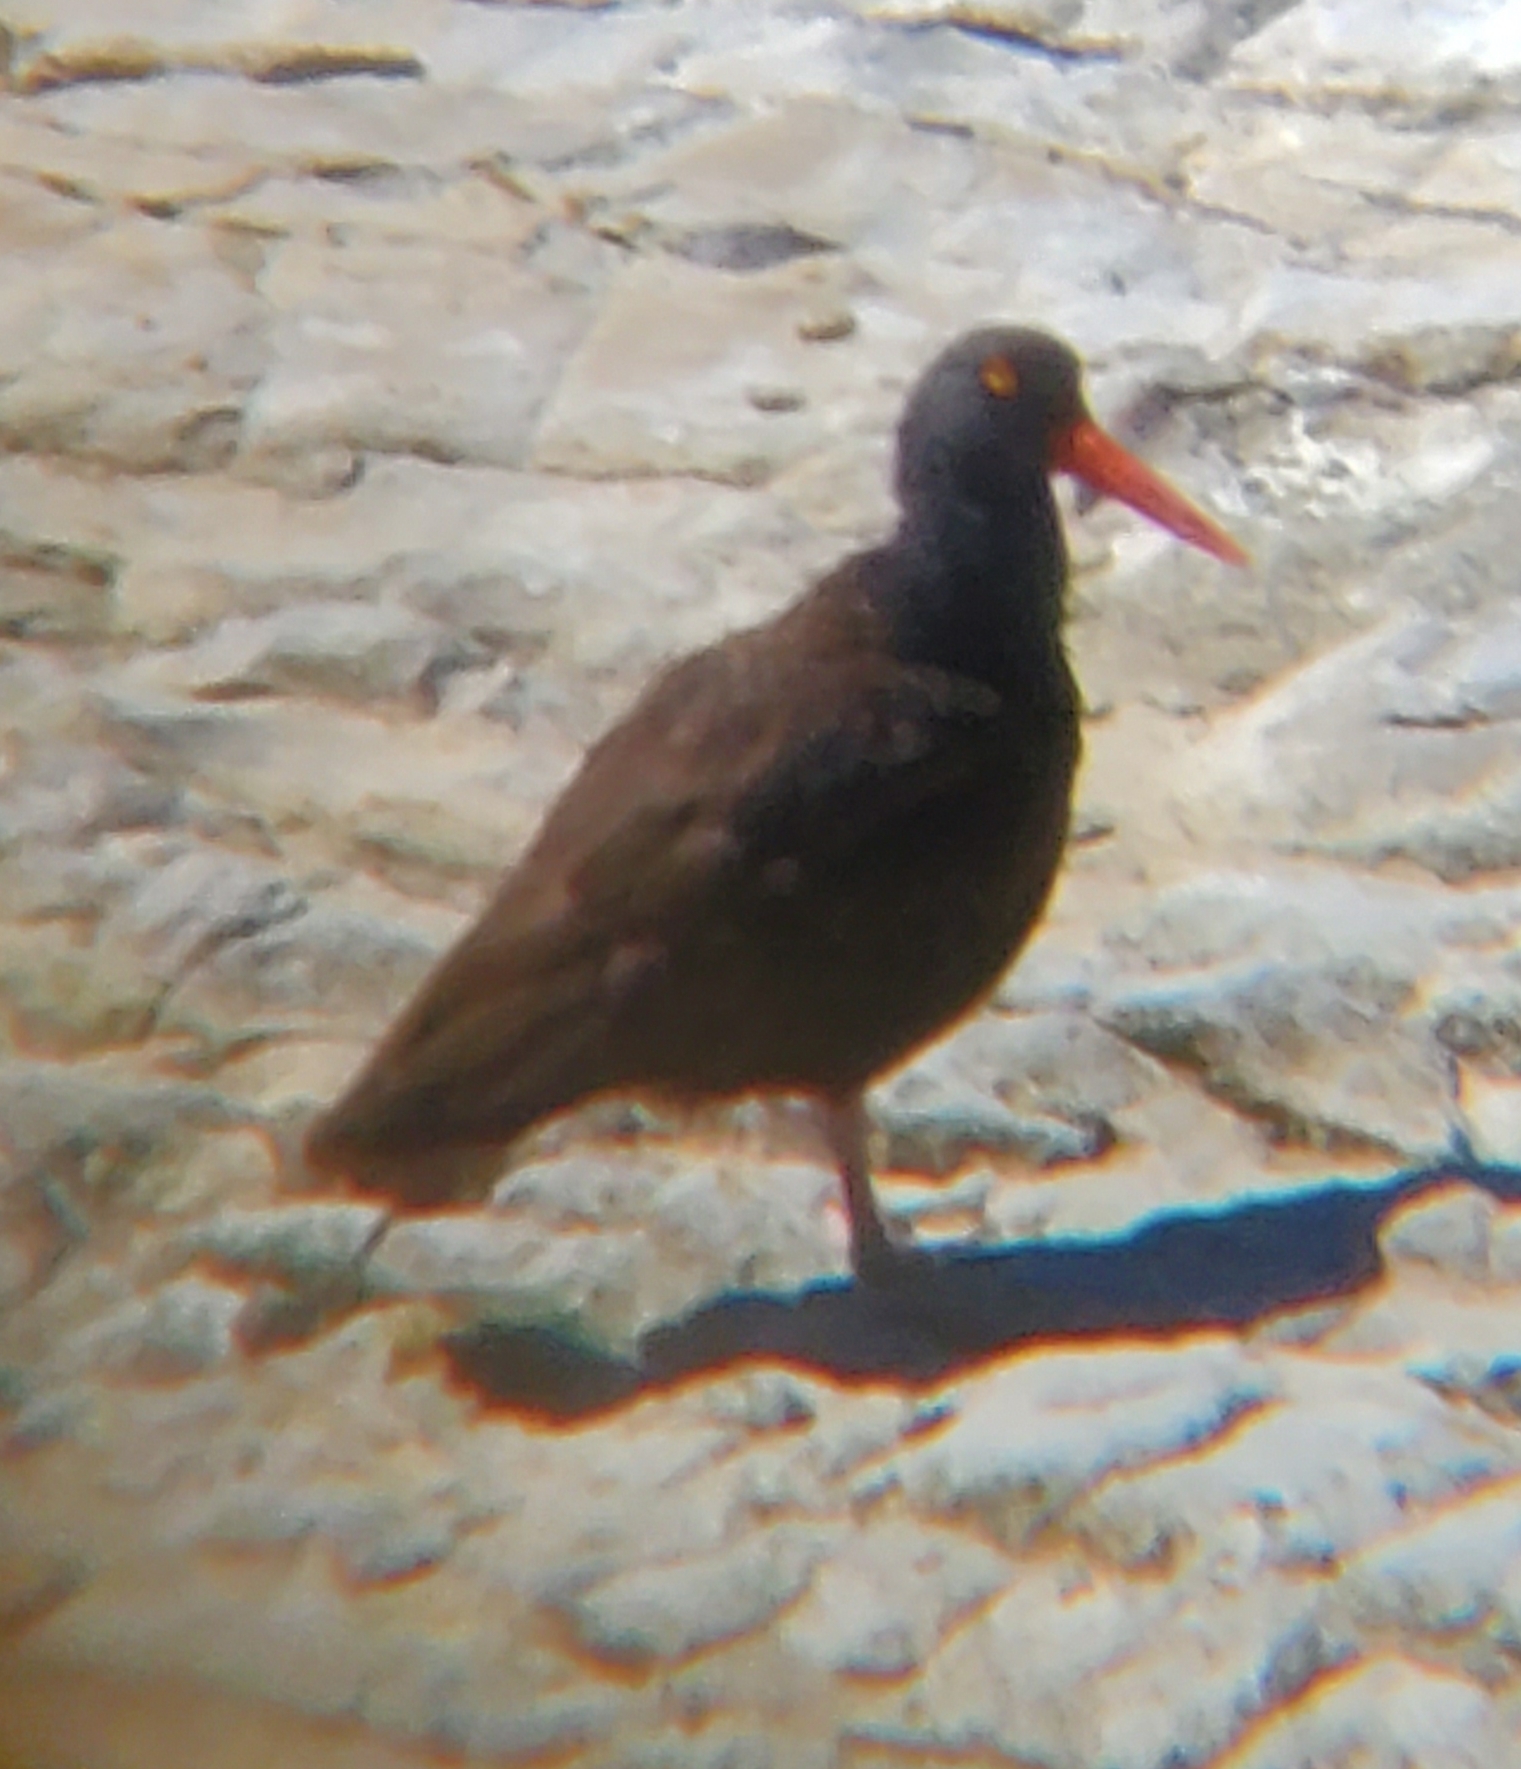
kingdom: Animalia
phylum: Chordata
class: Aves
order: Charadriiformes
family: Haematopodidae
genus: Haematopus
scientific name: Haematopus bachmani
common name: Black oystercatcher
